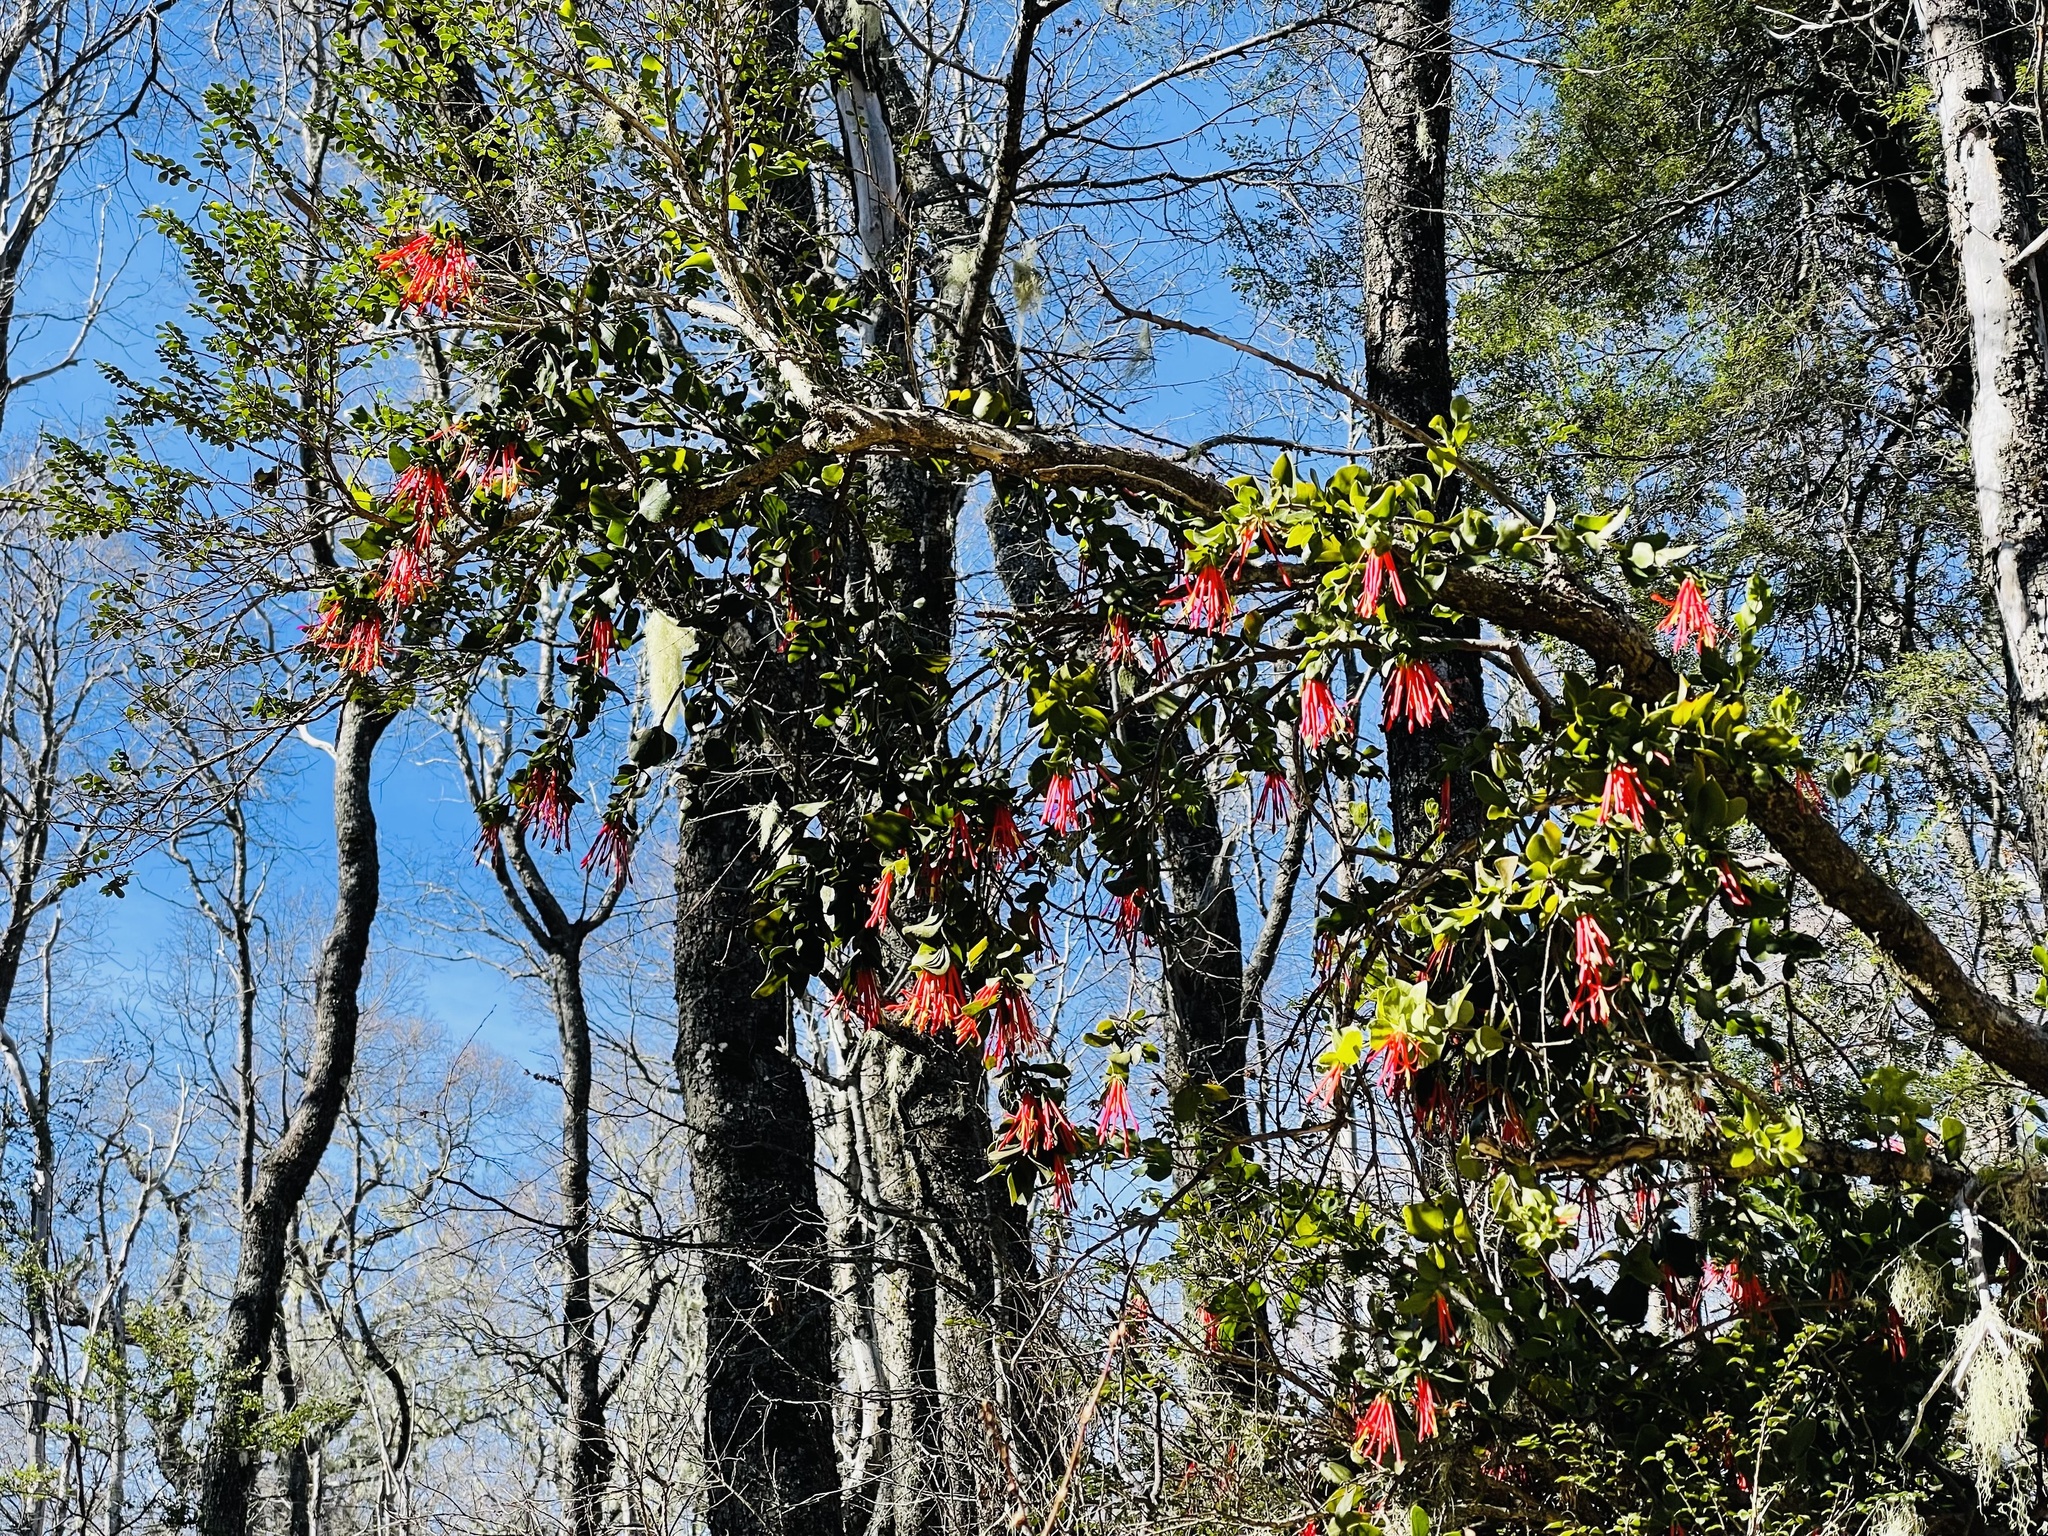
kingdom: Plantae
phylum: Tracheophyta
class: Magnoliopsida
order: Santalales
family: Loranthaceae
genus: Tristerix
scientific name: Tristerix corymbosus
